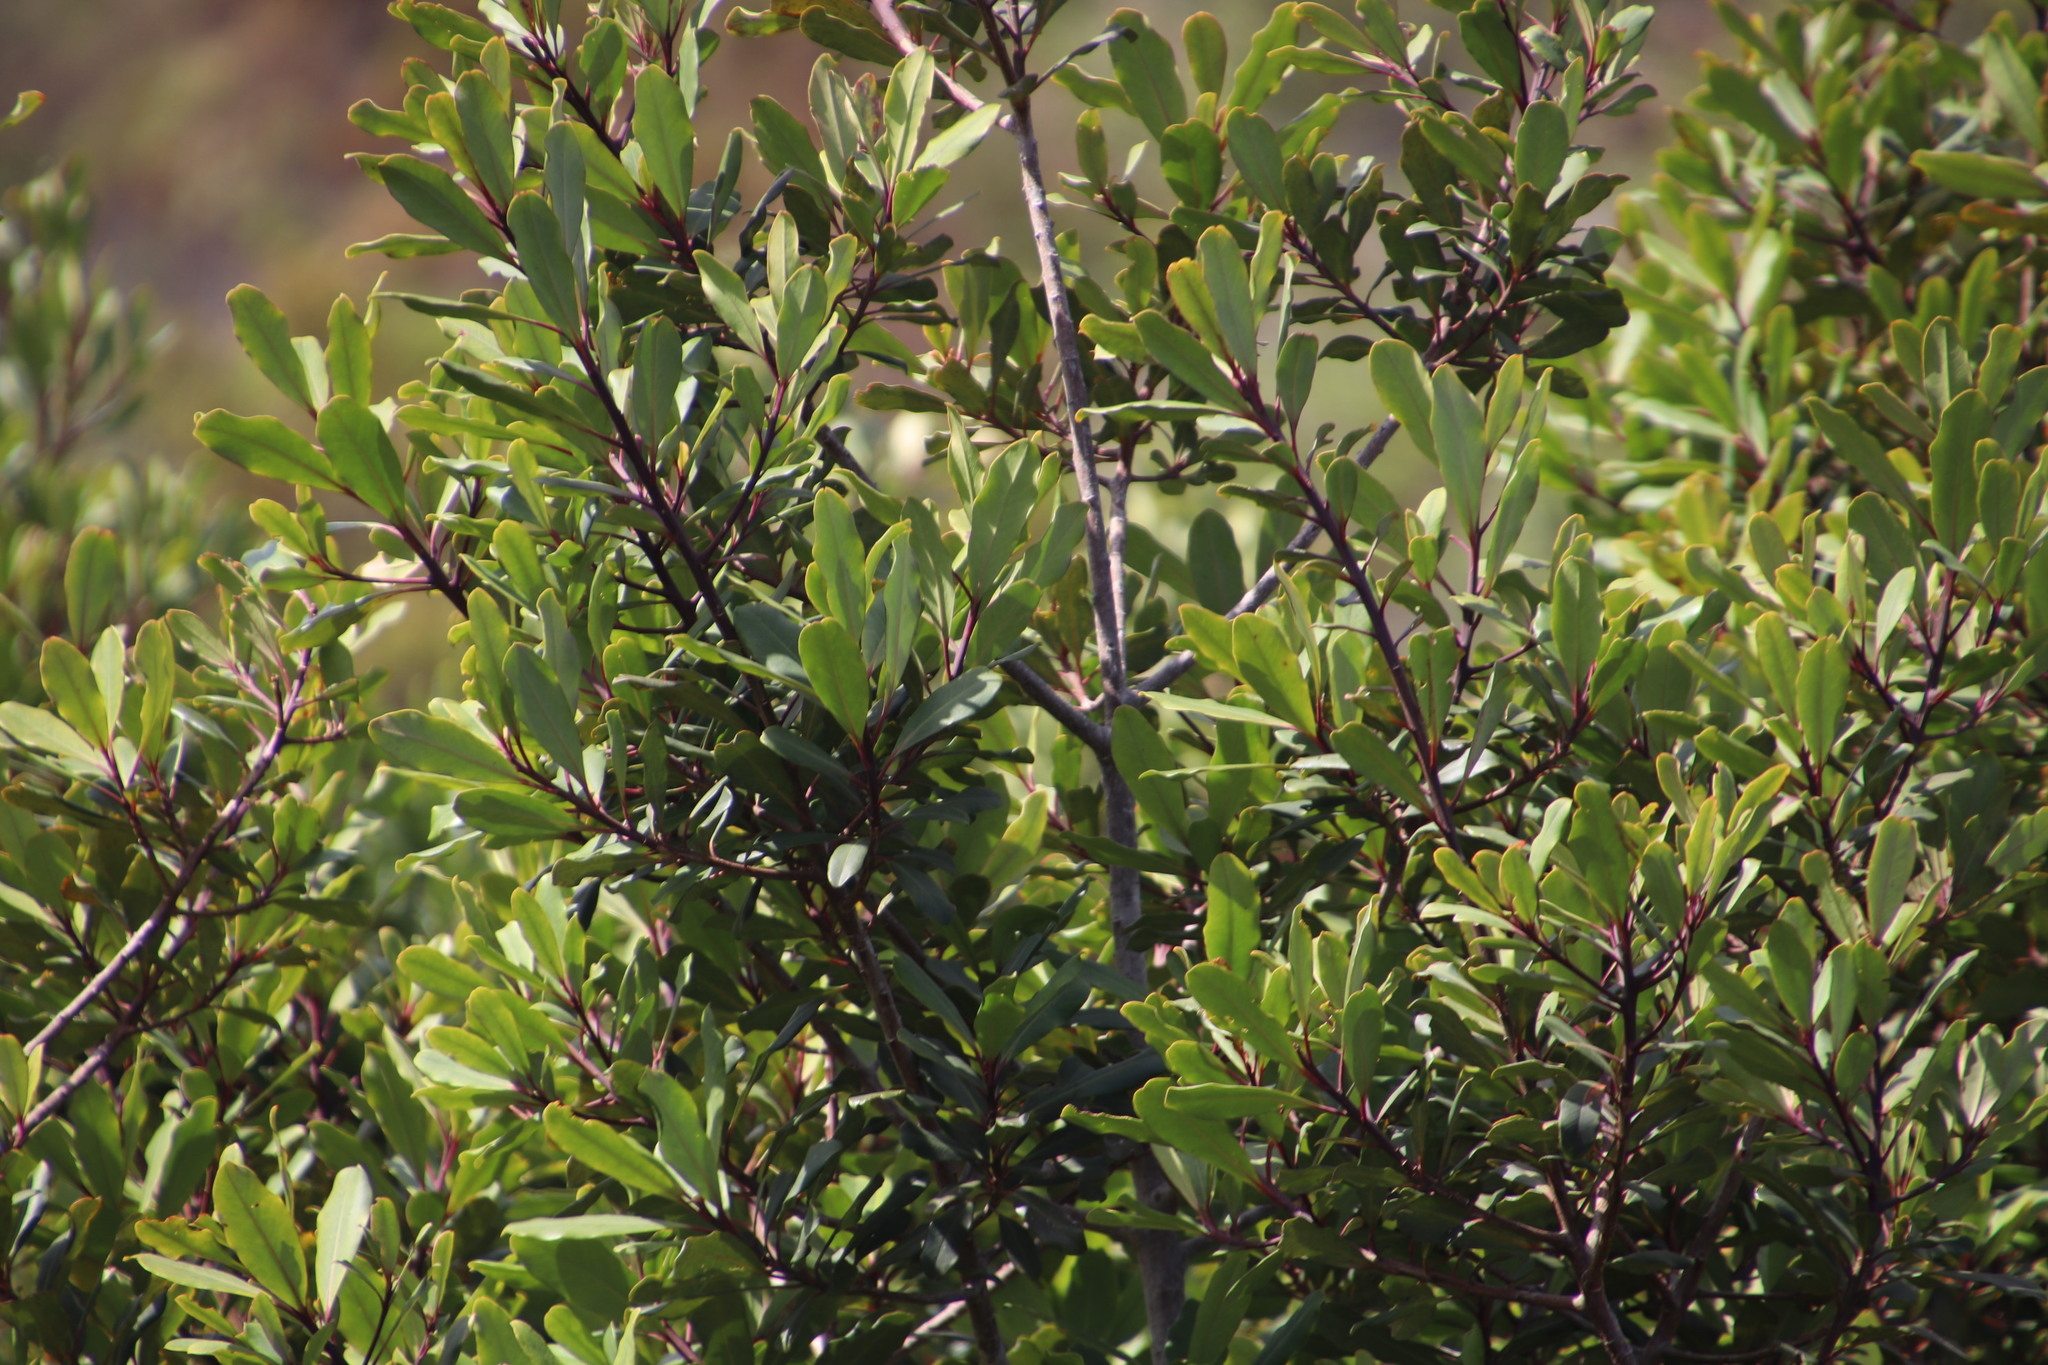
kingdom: Plantae
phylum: Tracheophyta
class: Magnoliopsida
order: Ericales
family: Primulaceae
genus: Myrsine
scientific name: Myrsine melanophloeos
